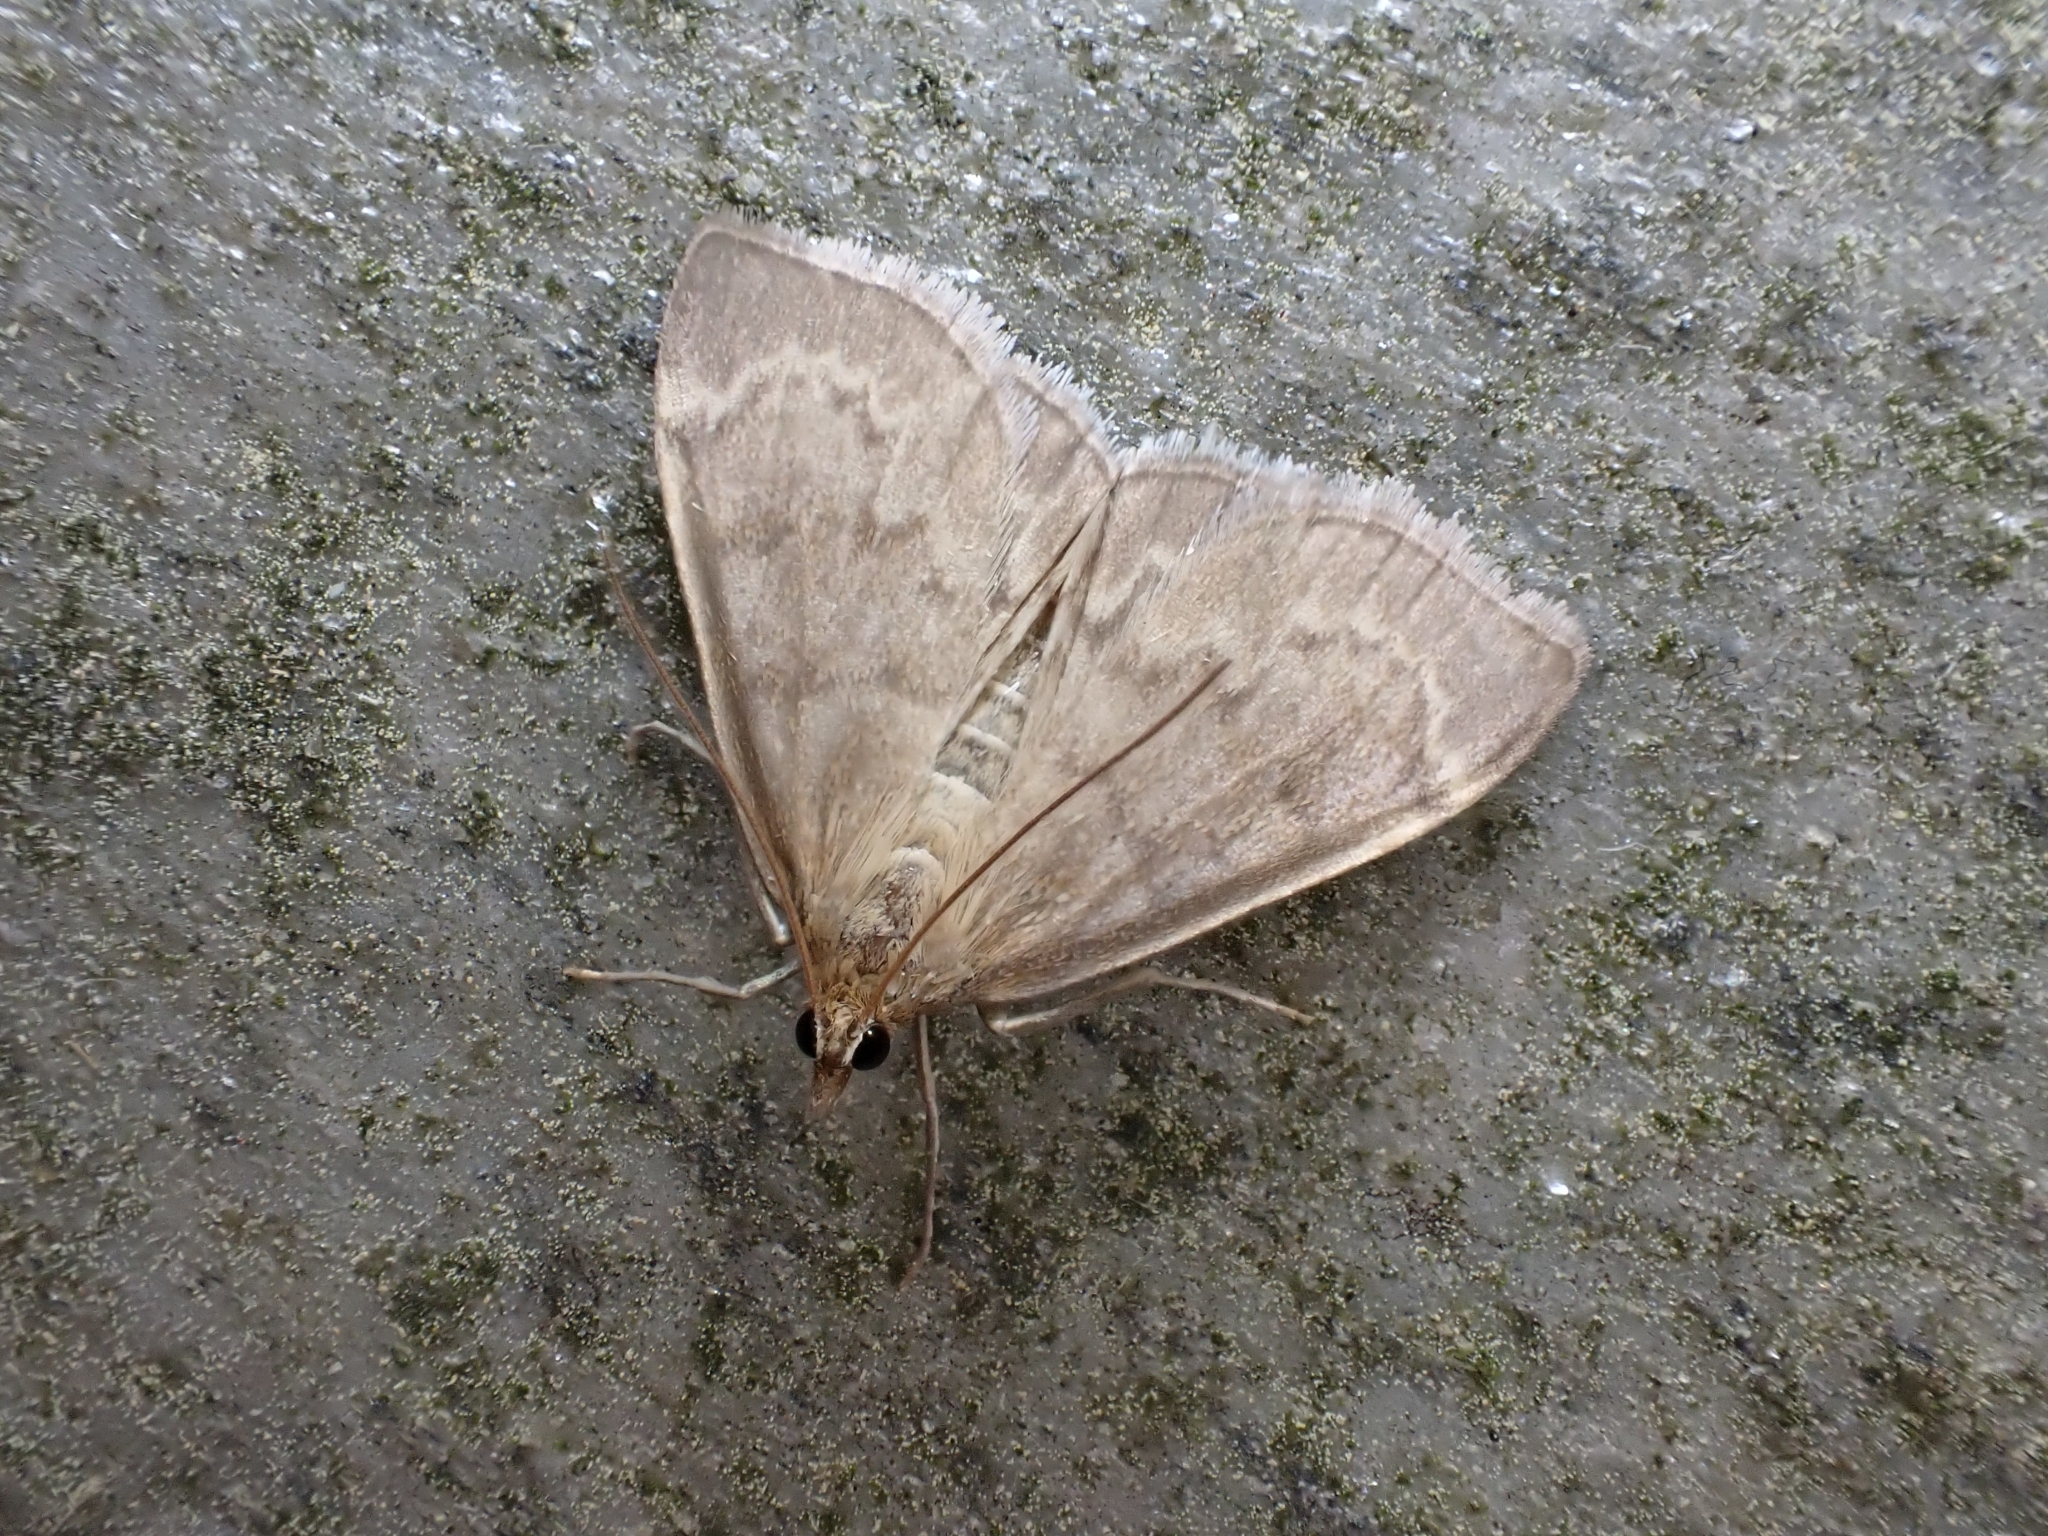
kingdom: Animalia
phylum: Arthropoda
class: Insecta
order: Lepidoptera
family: Crambidae
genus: Anania
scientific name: Anania fuscalis
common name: Cinerous pearl
